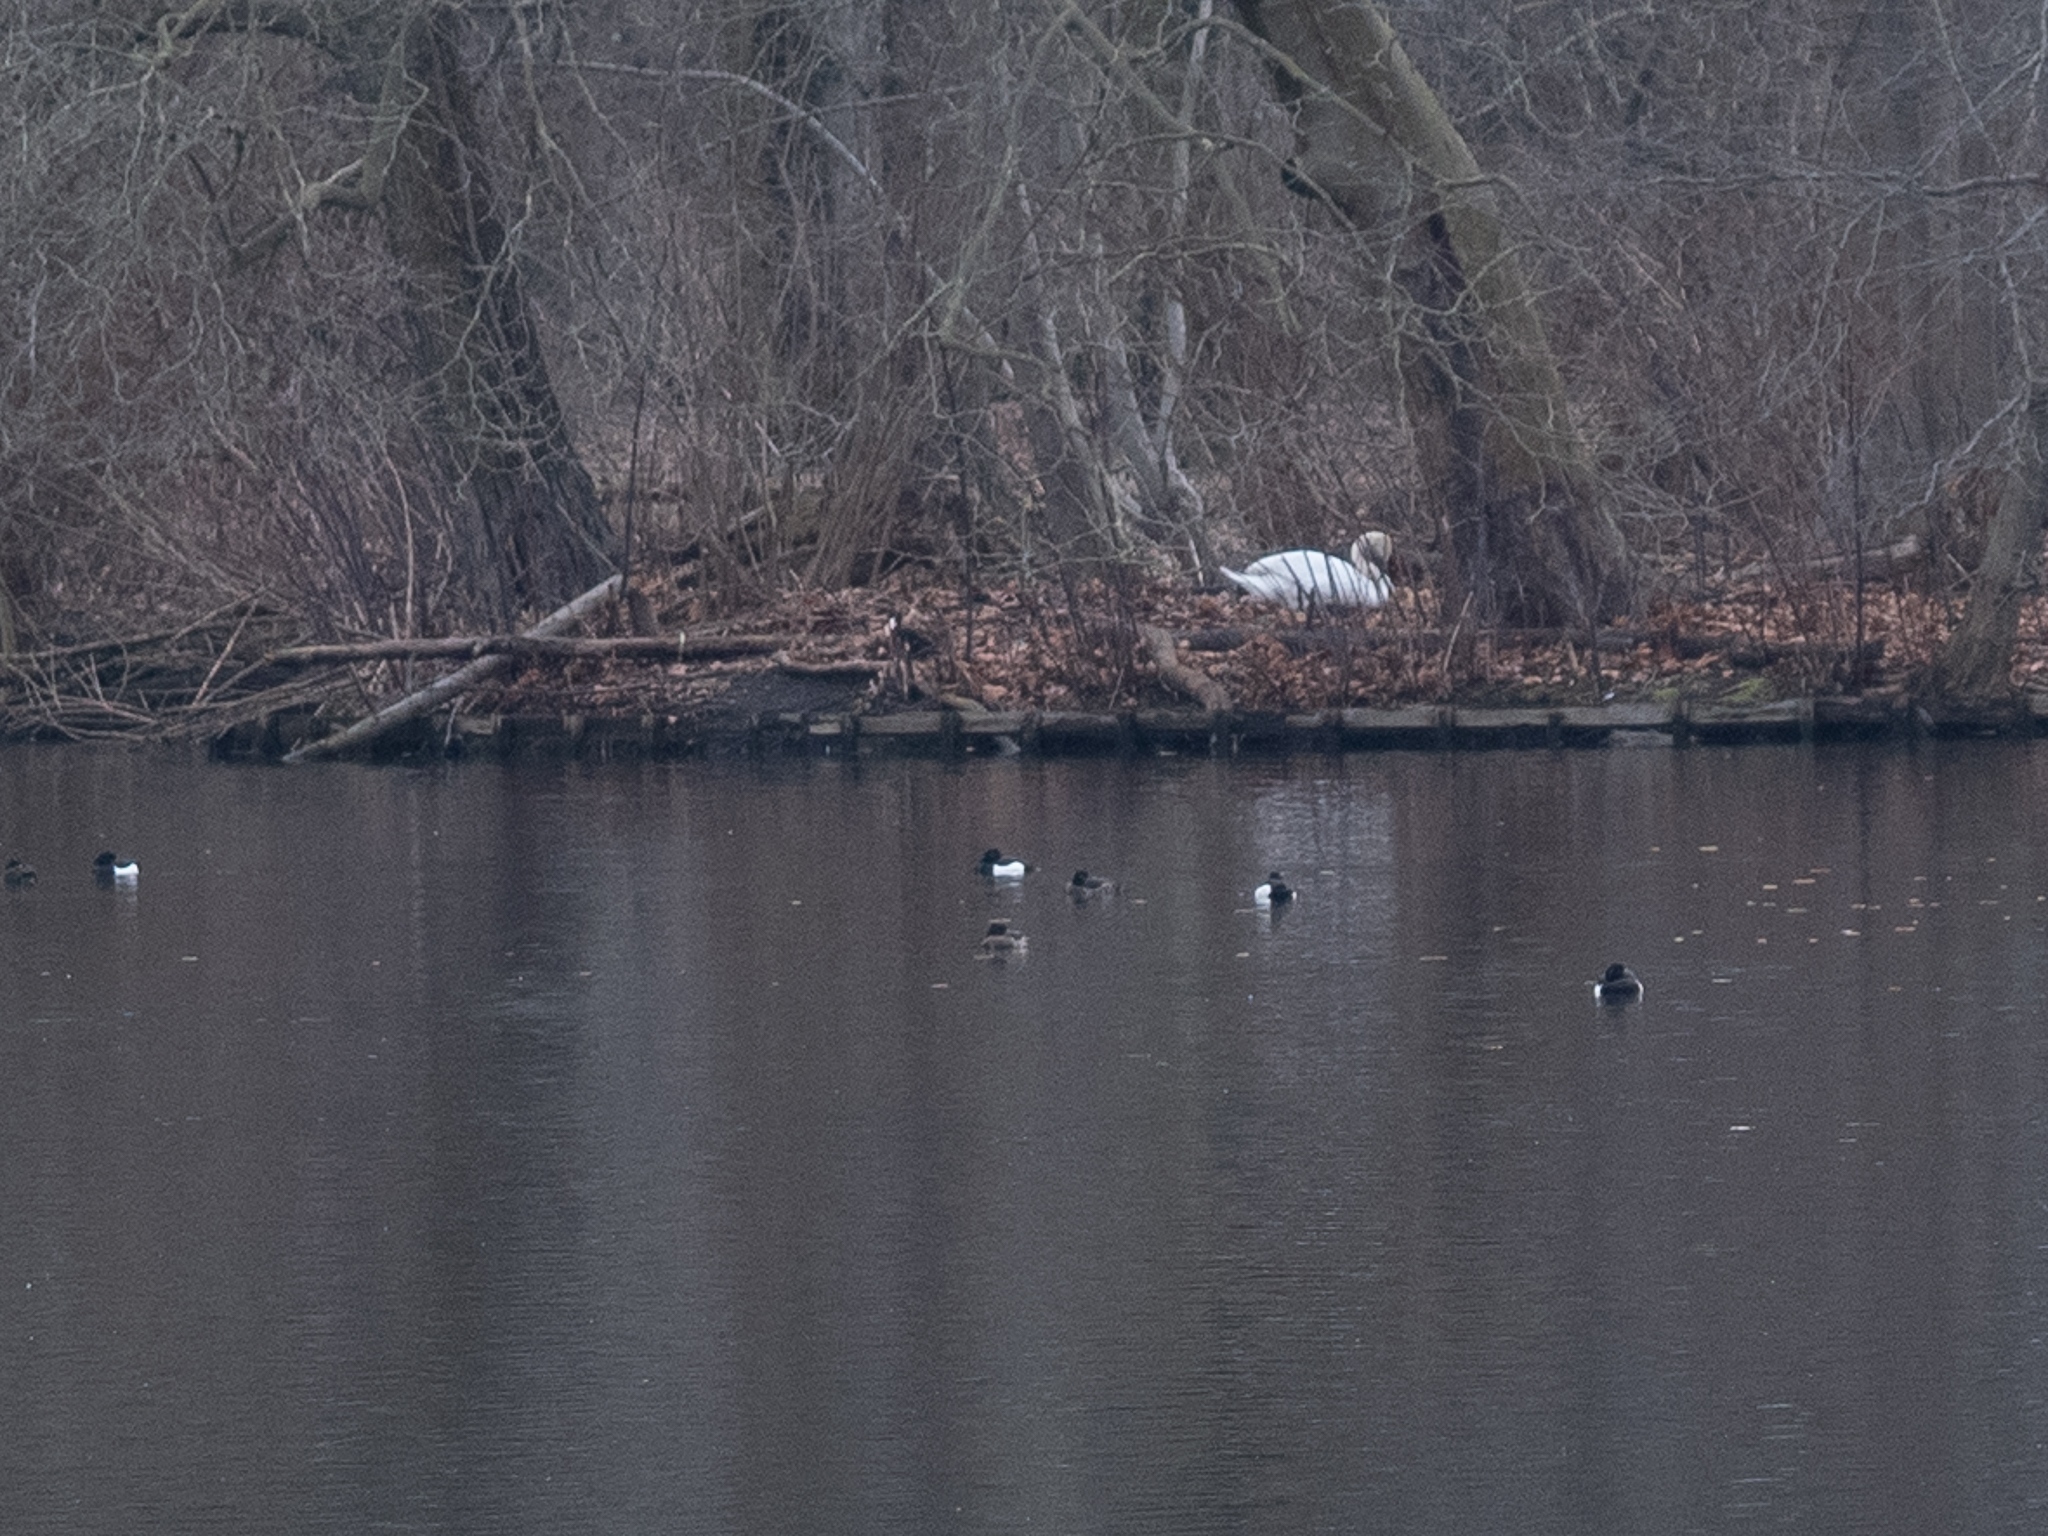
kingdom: Animalia
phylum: Chordata
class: Aves
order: Anseriformes
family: Anatidae
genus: Cygnus
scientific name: Cygnus olor
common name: Mute swan
